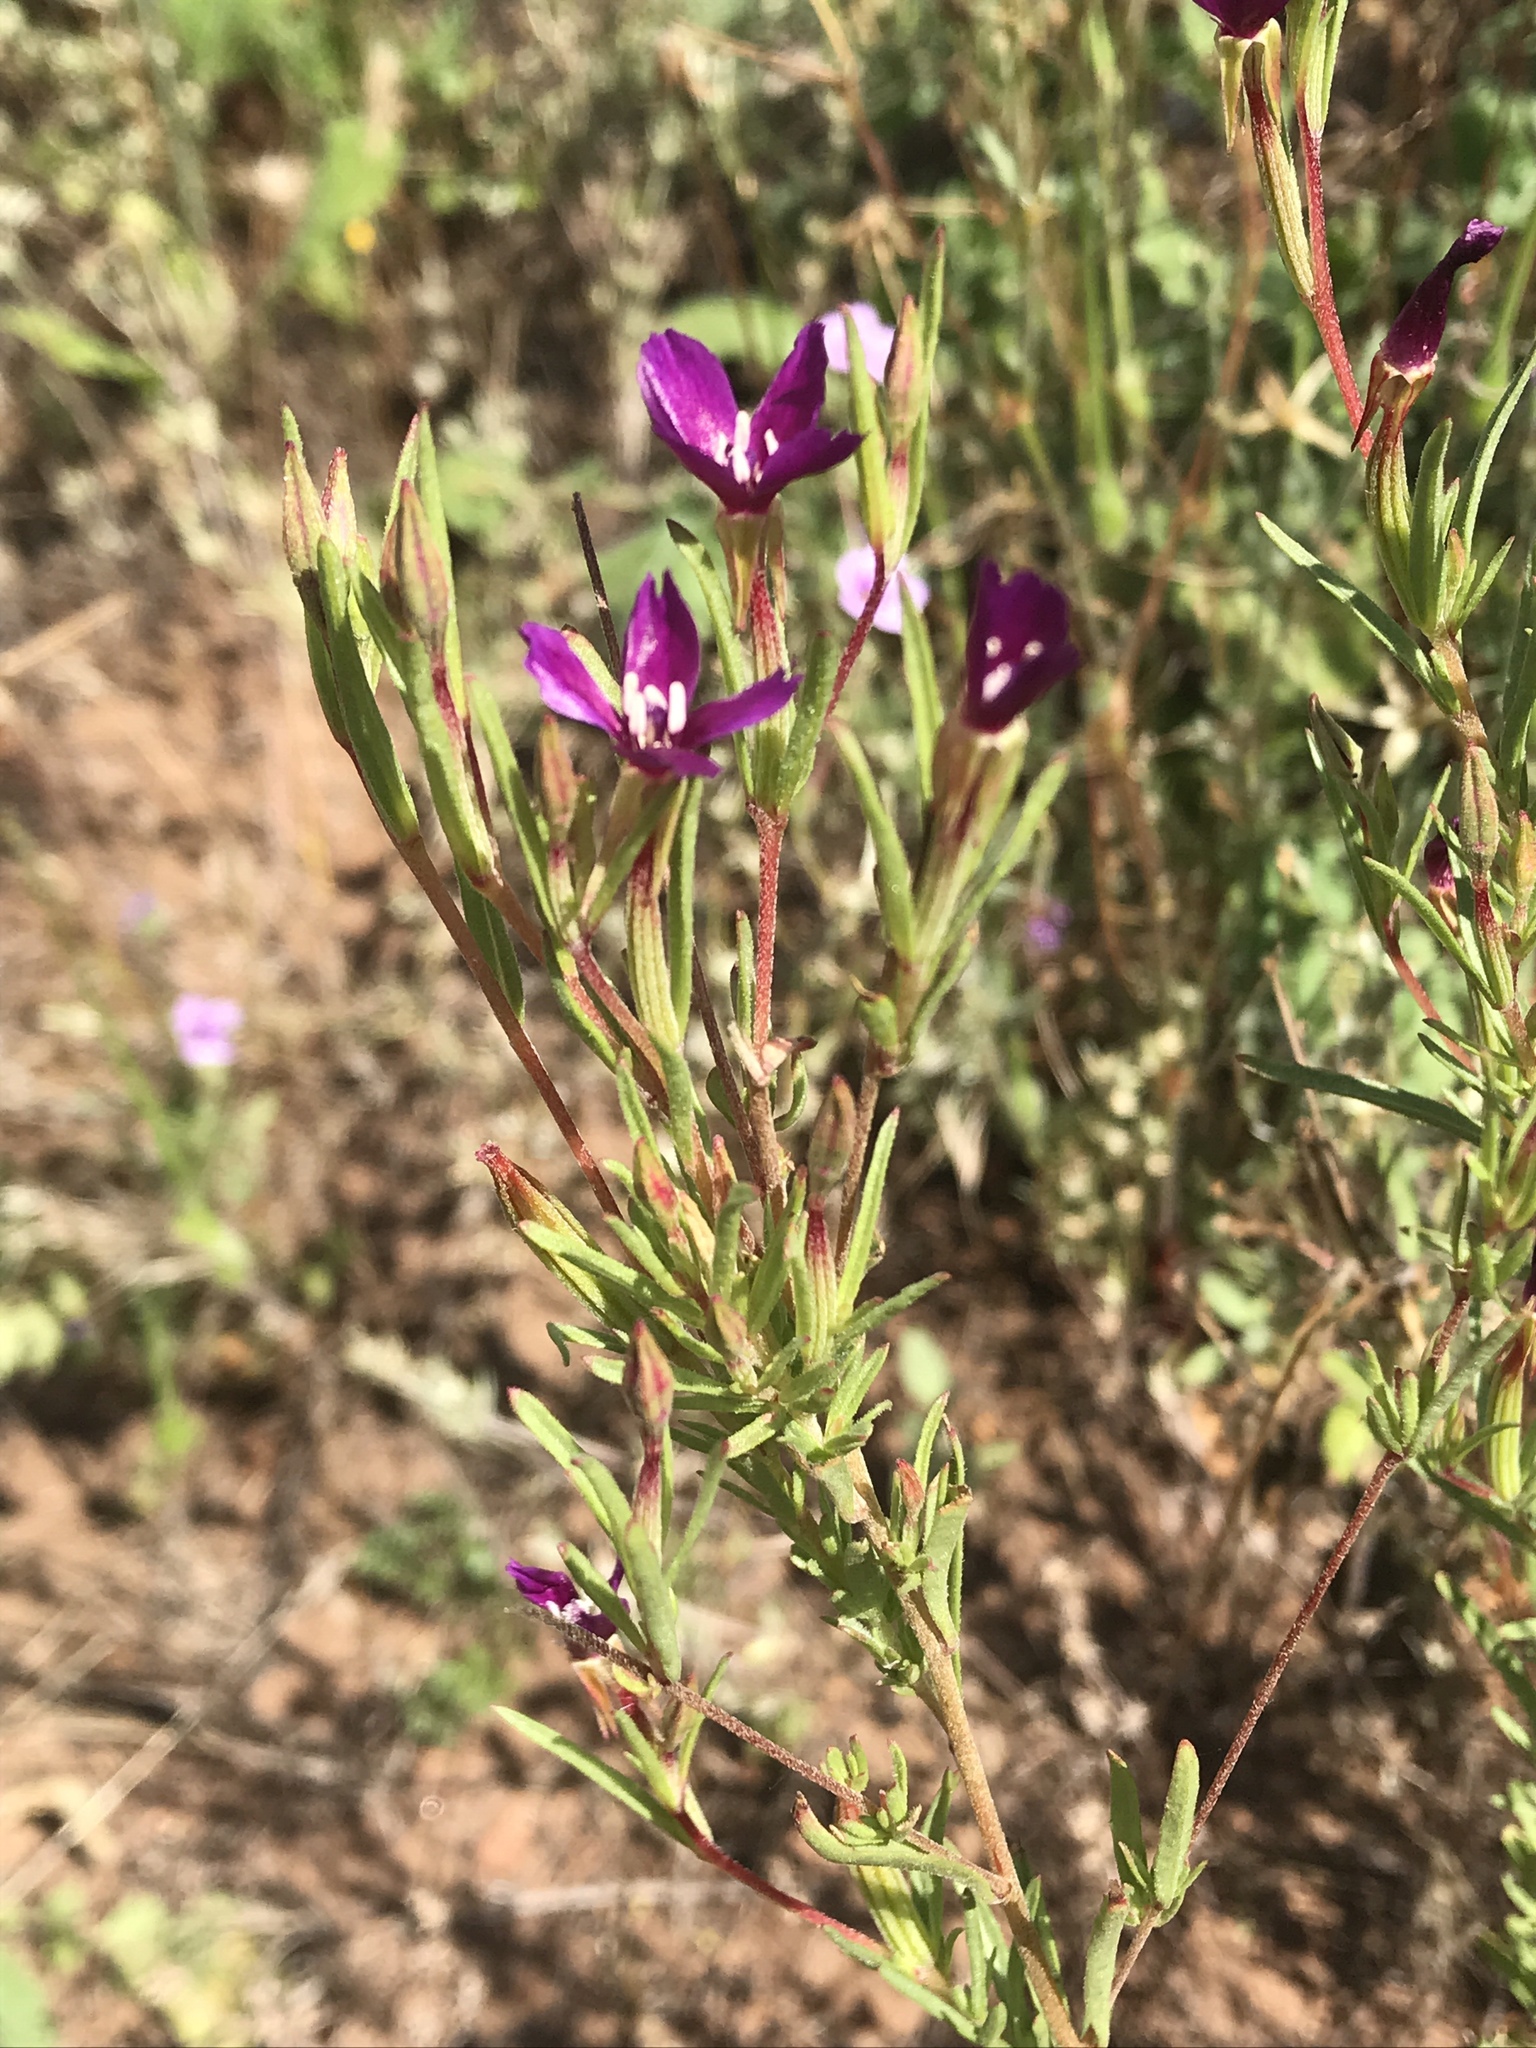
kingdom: Plantae
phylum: Tracheophyta
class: Magnoliopsida
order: Myrtales
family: Onagraceae
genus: Clarkia
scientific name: Clarkia purpurea
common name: Purple clarkia
